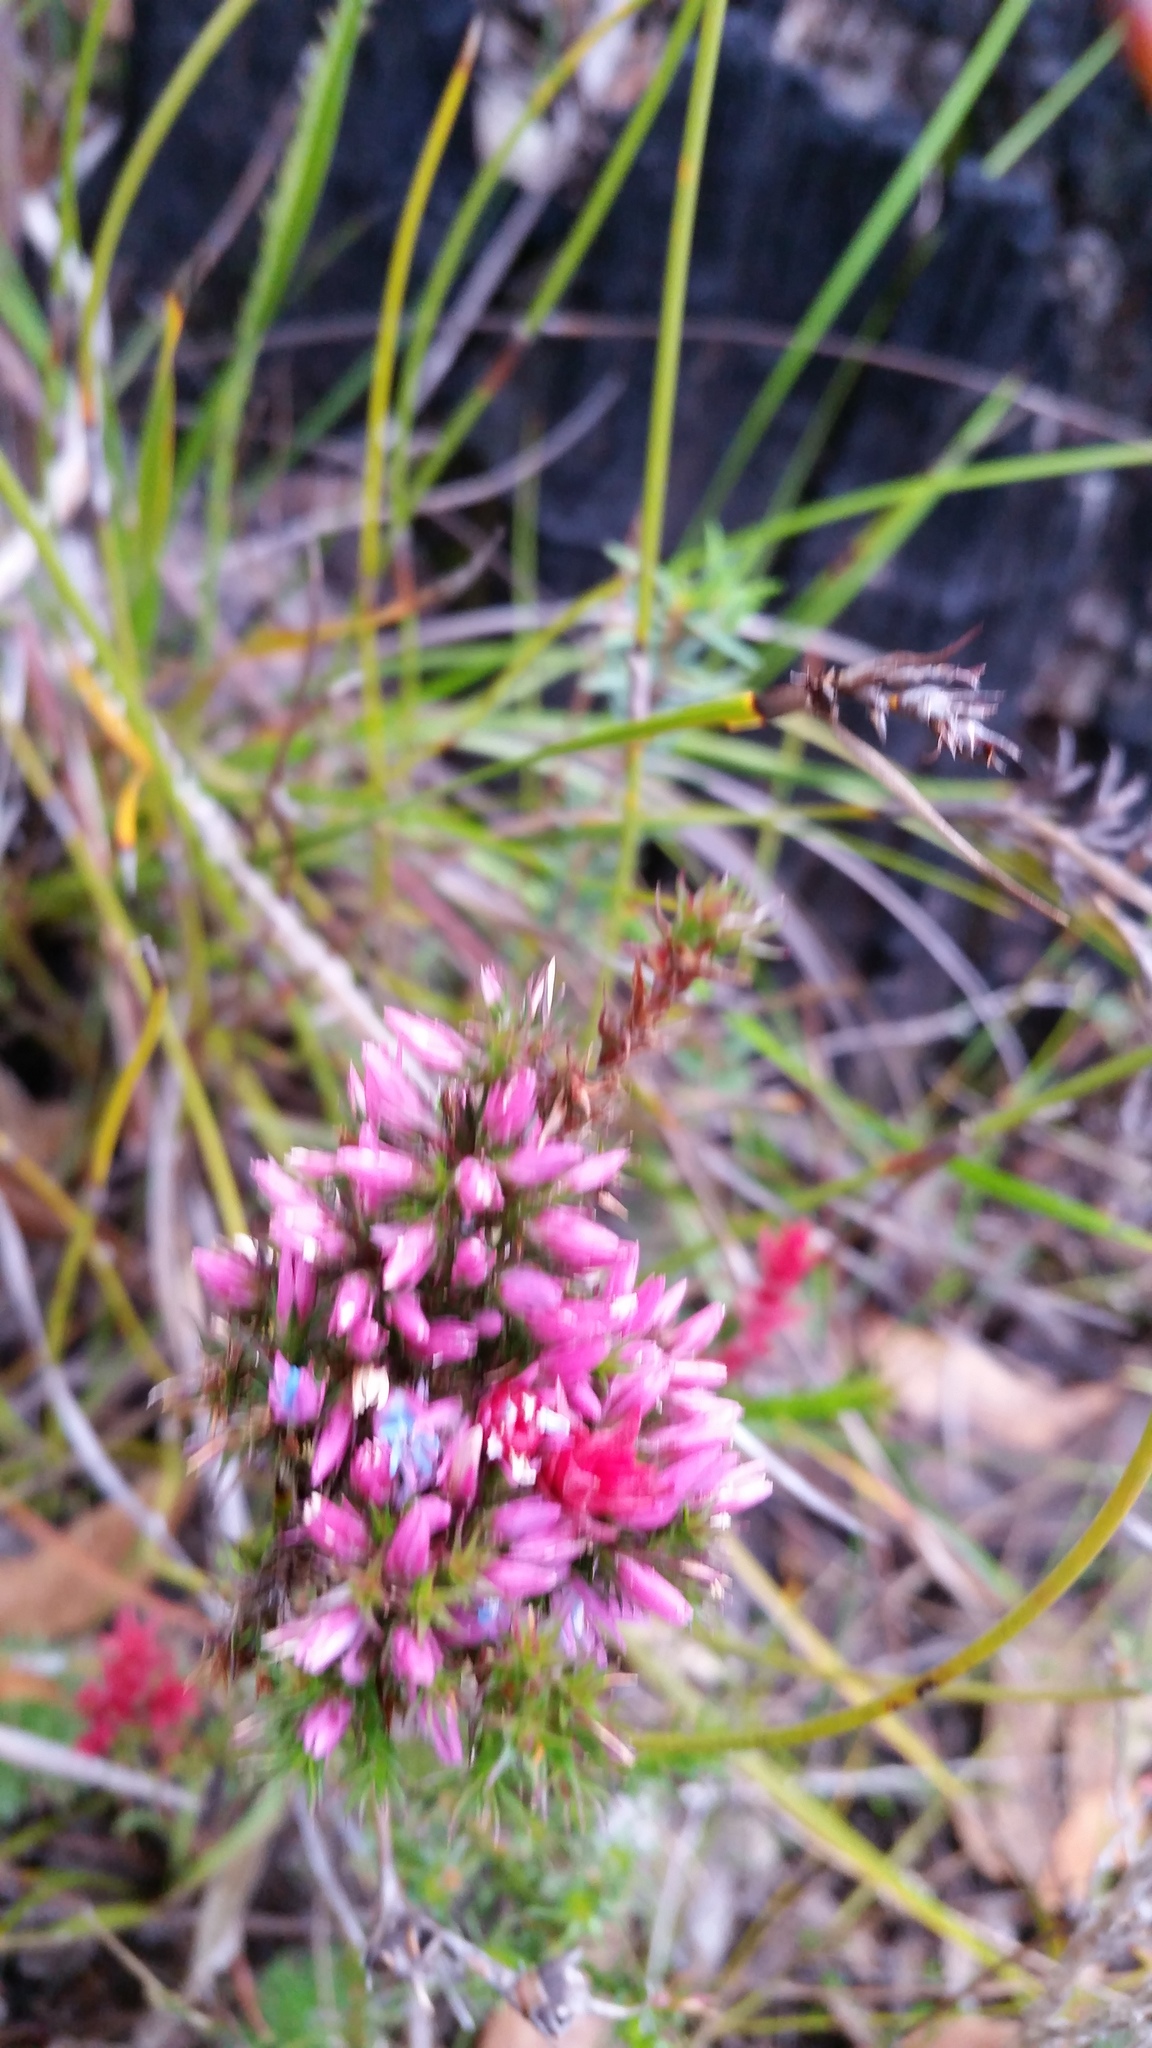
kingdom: Plantae
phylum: Tracheophyta
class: Magnoliopsida
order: Ericales
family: Ericaceae
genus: Andersonia
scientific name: Andersonia caerulea
